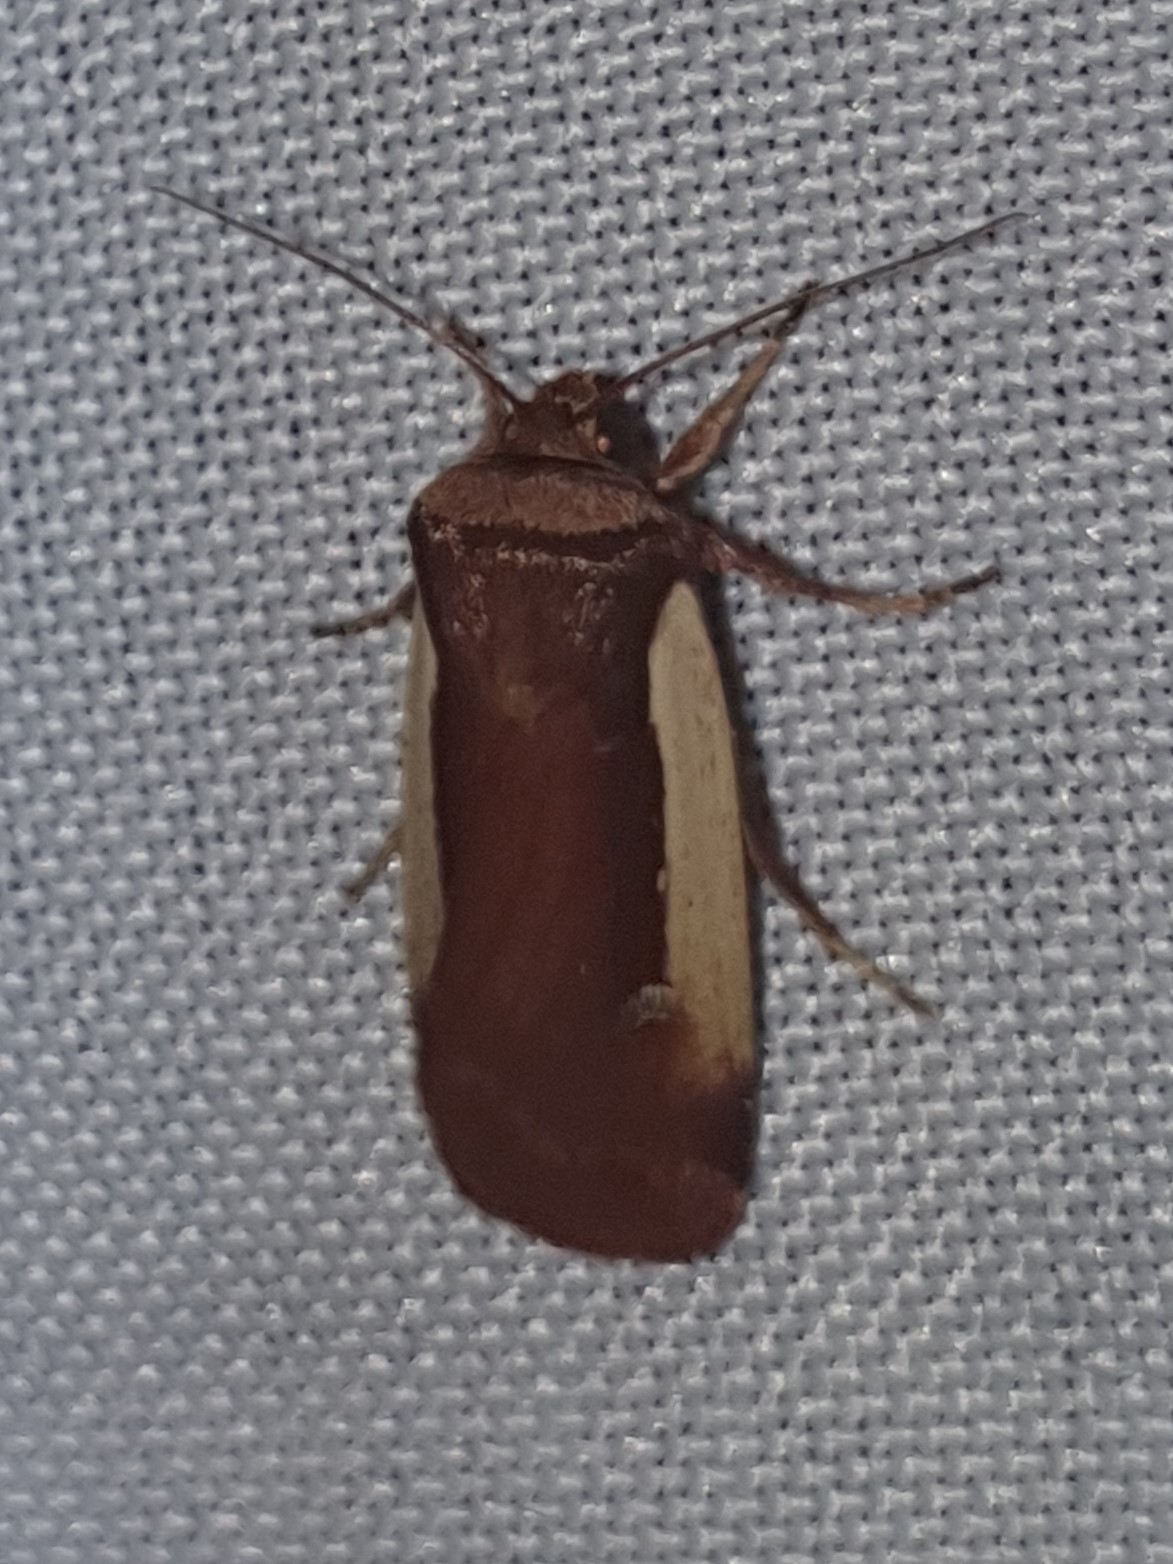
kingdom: Animalia
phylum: Arthropoda
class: Insecta
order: Lepidoptera
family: Noctuidae
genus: Ochropleura
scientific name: Ochropleura plecta
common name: Flame shoulder
